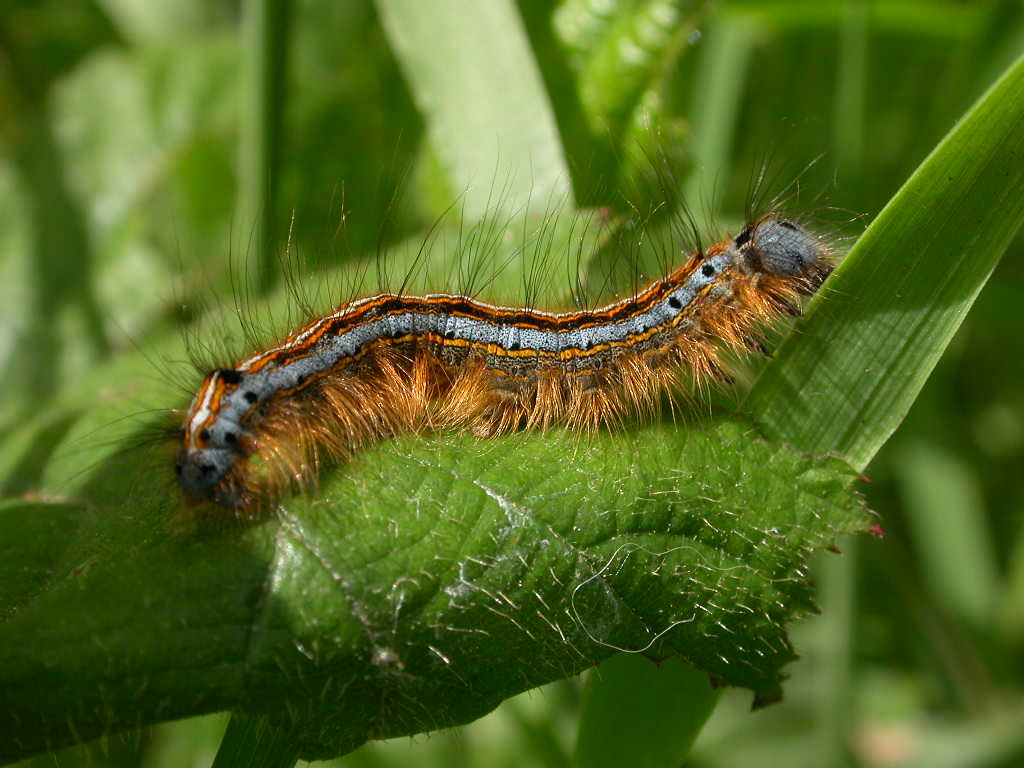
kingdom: Animalia
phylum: Arthropoda
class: Insecta
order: Lepidoptera
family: Lasiocampidae
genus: Malacosoma
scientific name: Malacosoma neustria
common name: The lackey
